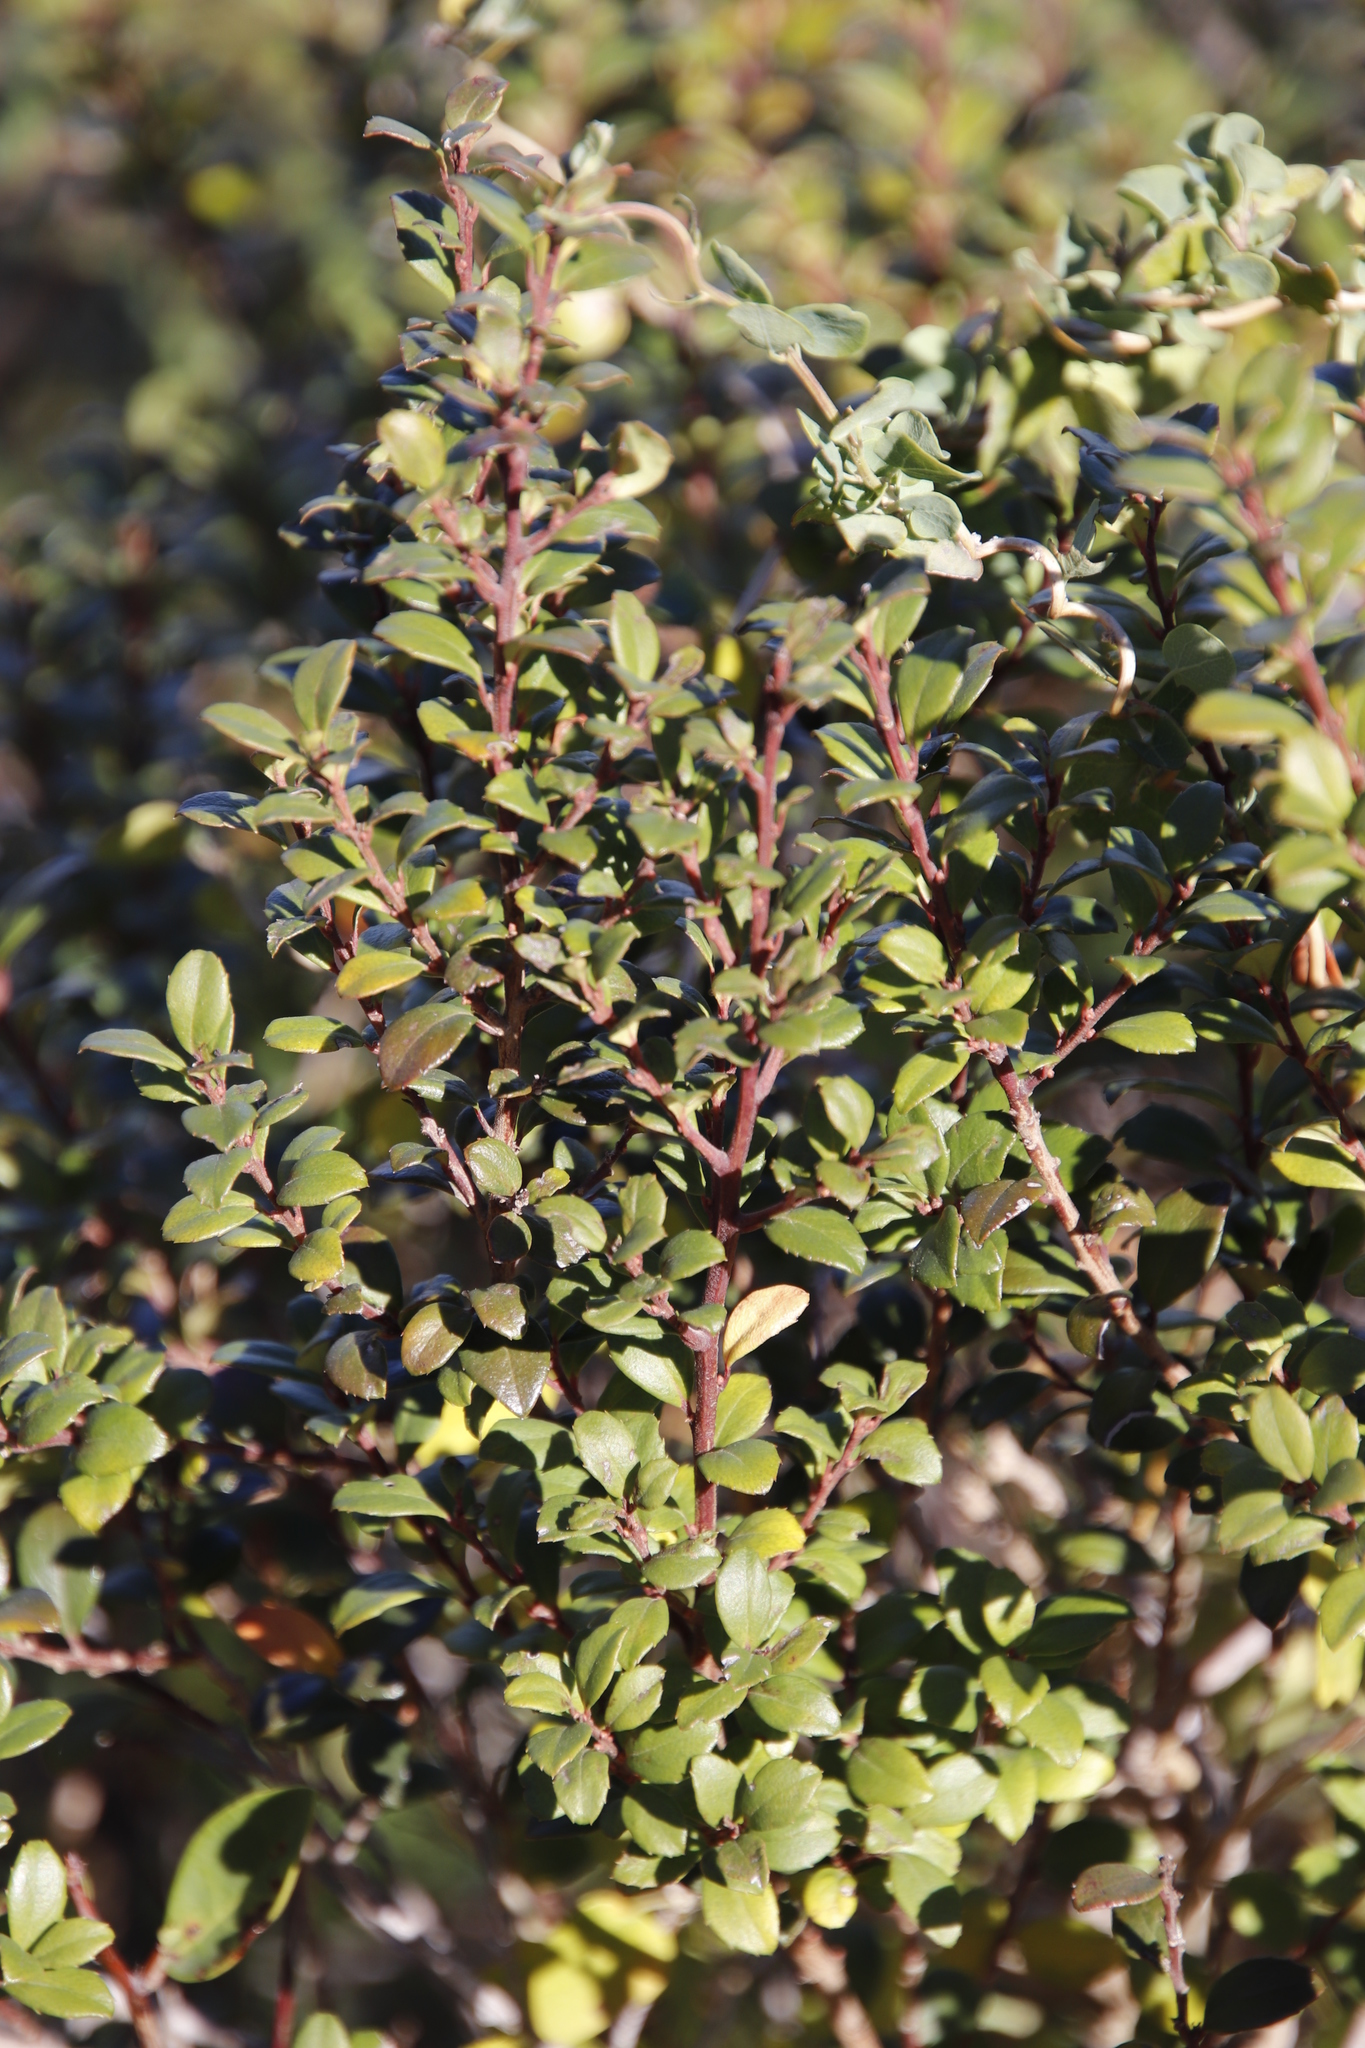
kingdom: Plantae
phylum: Tracheophyta
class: Magnoliopsida
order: Ericales
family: Primulaceae
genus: Myrsine
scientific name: Myrsine africana
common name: African-boxwood
